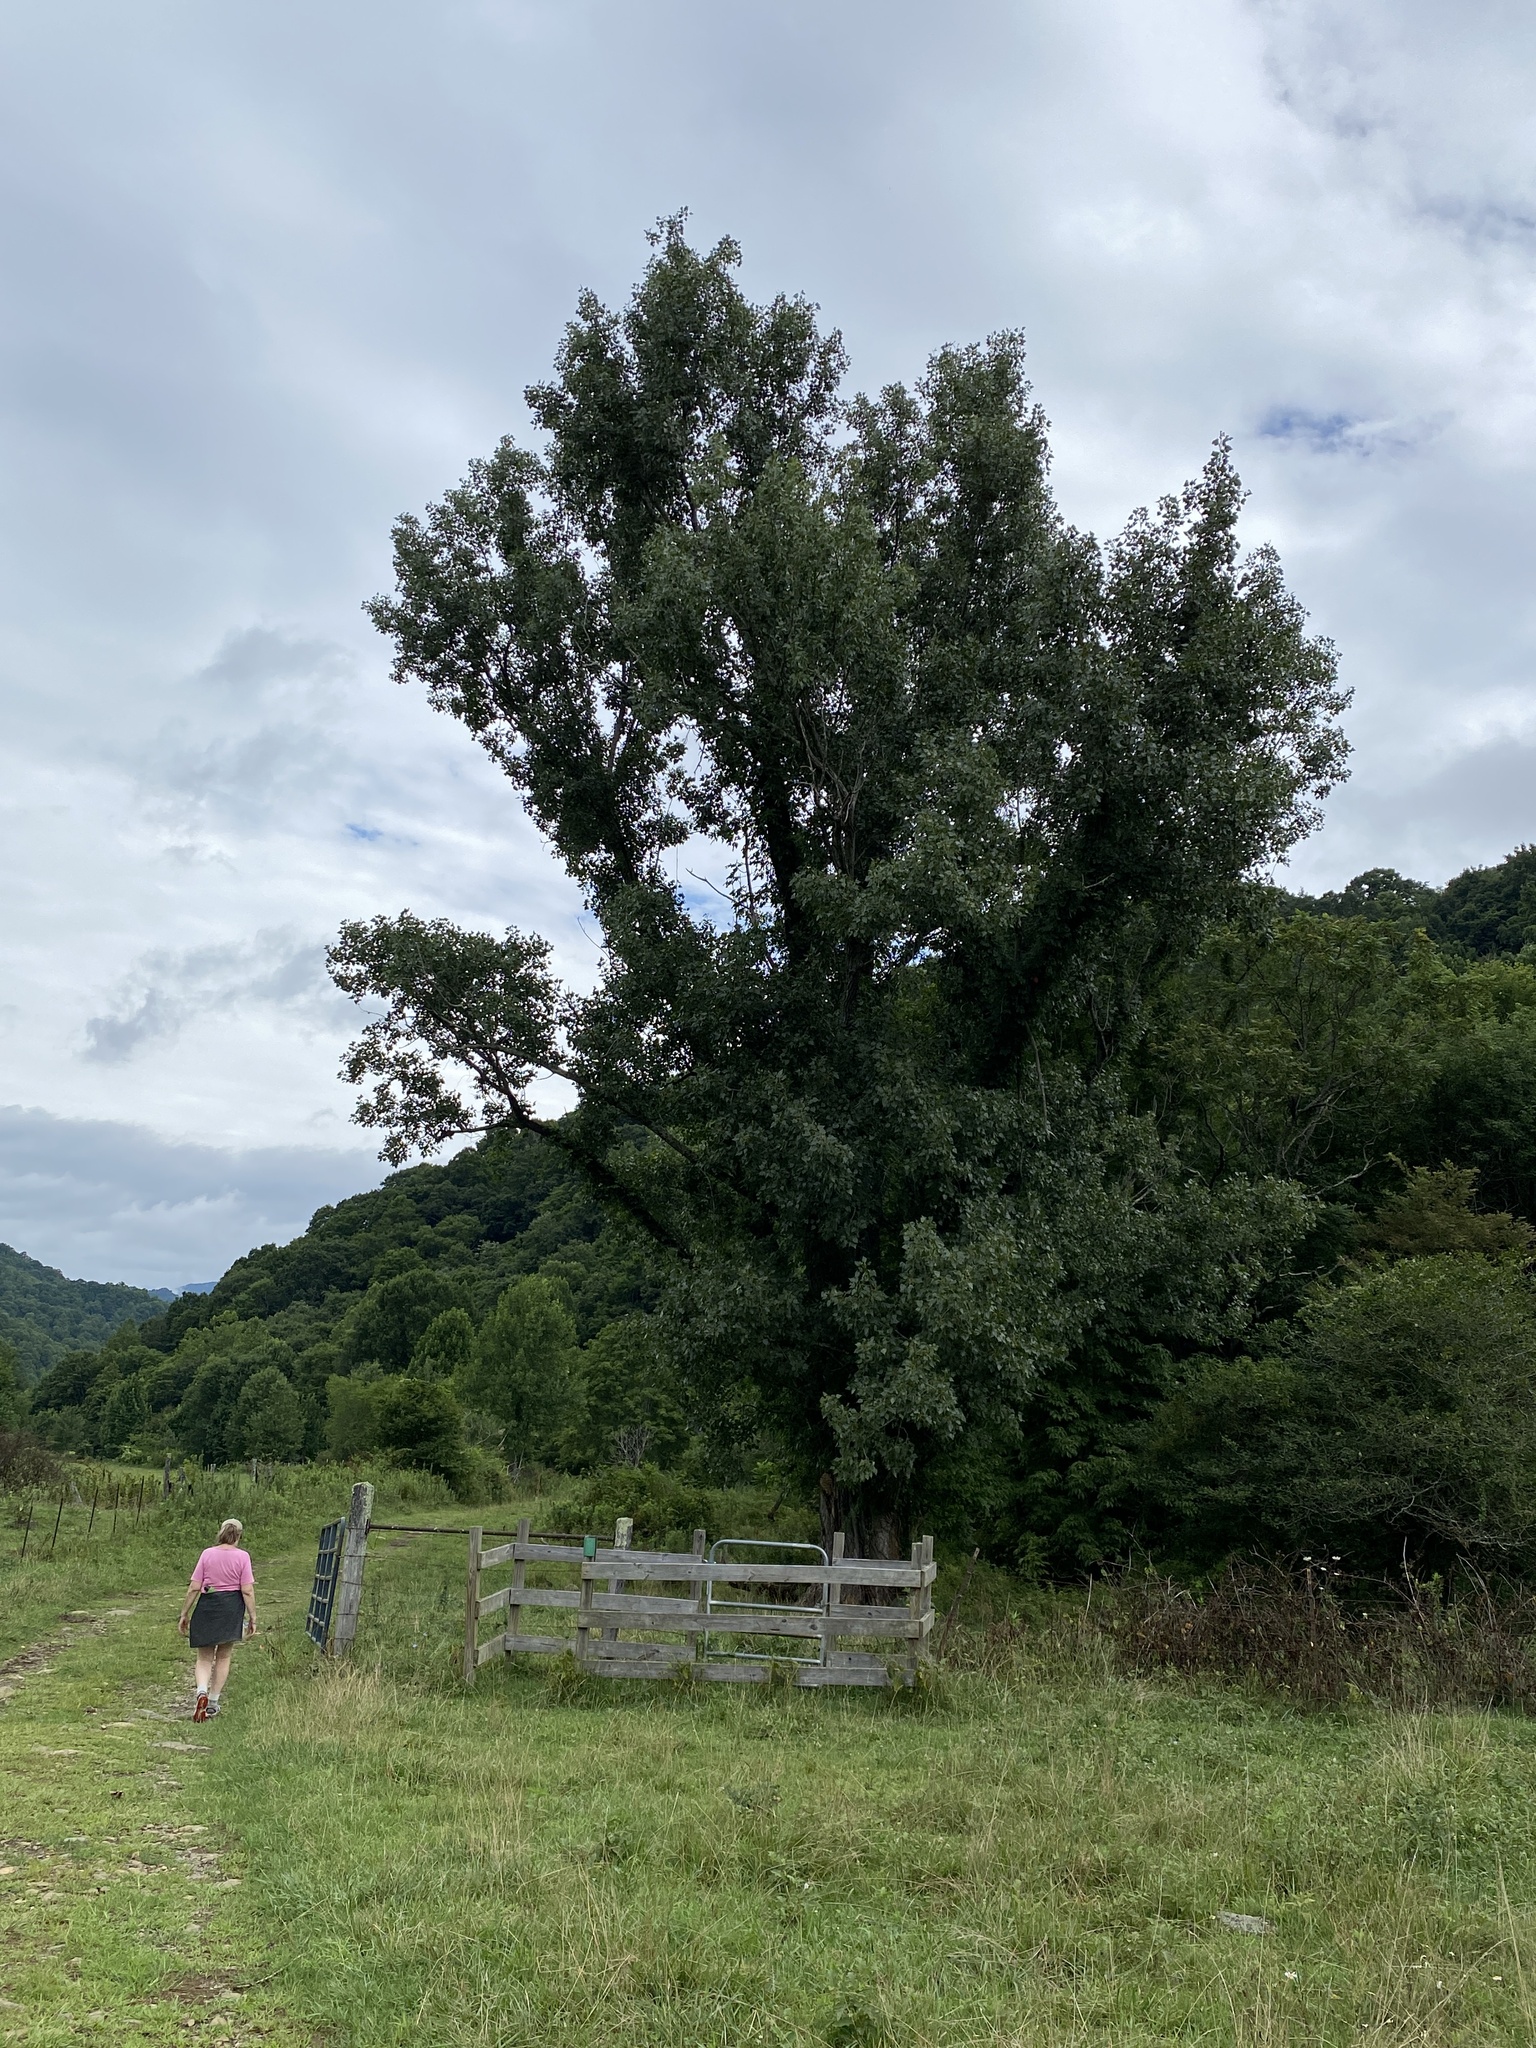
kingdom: Plantae
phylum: Tracheophyta
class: Magnoliopsida
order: Malpighiales
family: Salicaceae
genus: Populus
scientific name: Populus deltoides
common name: Eastern cottonwood
